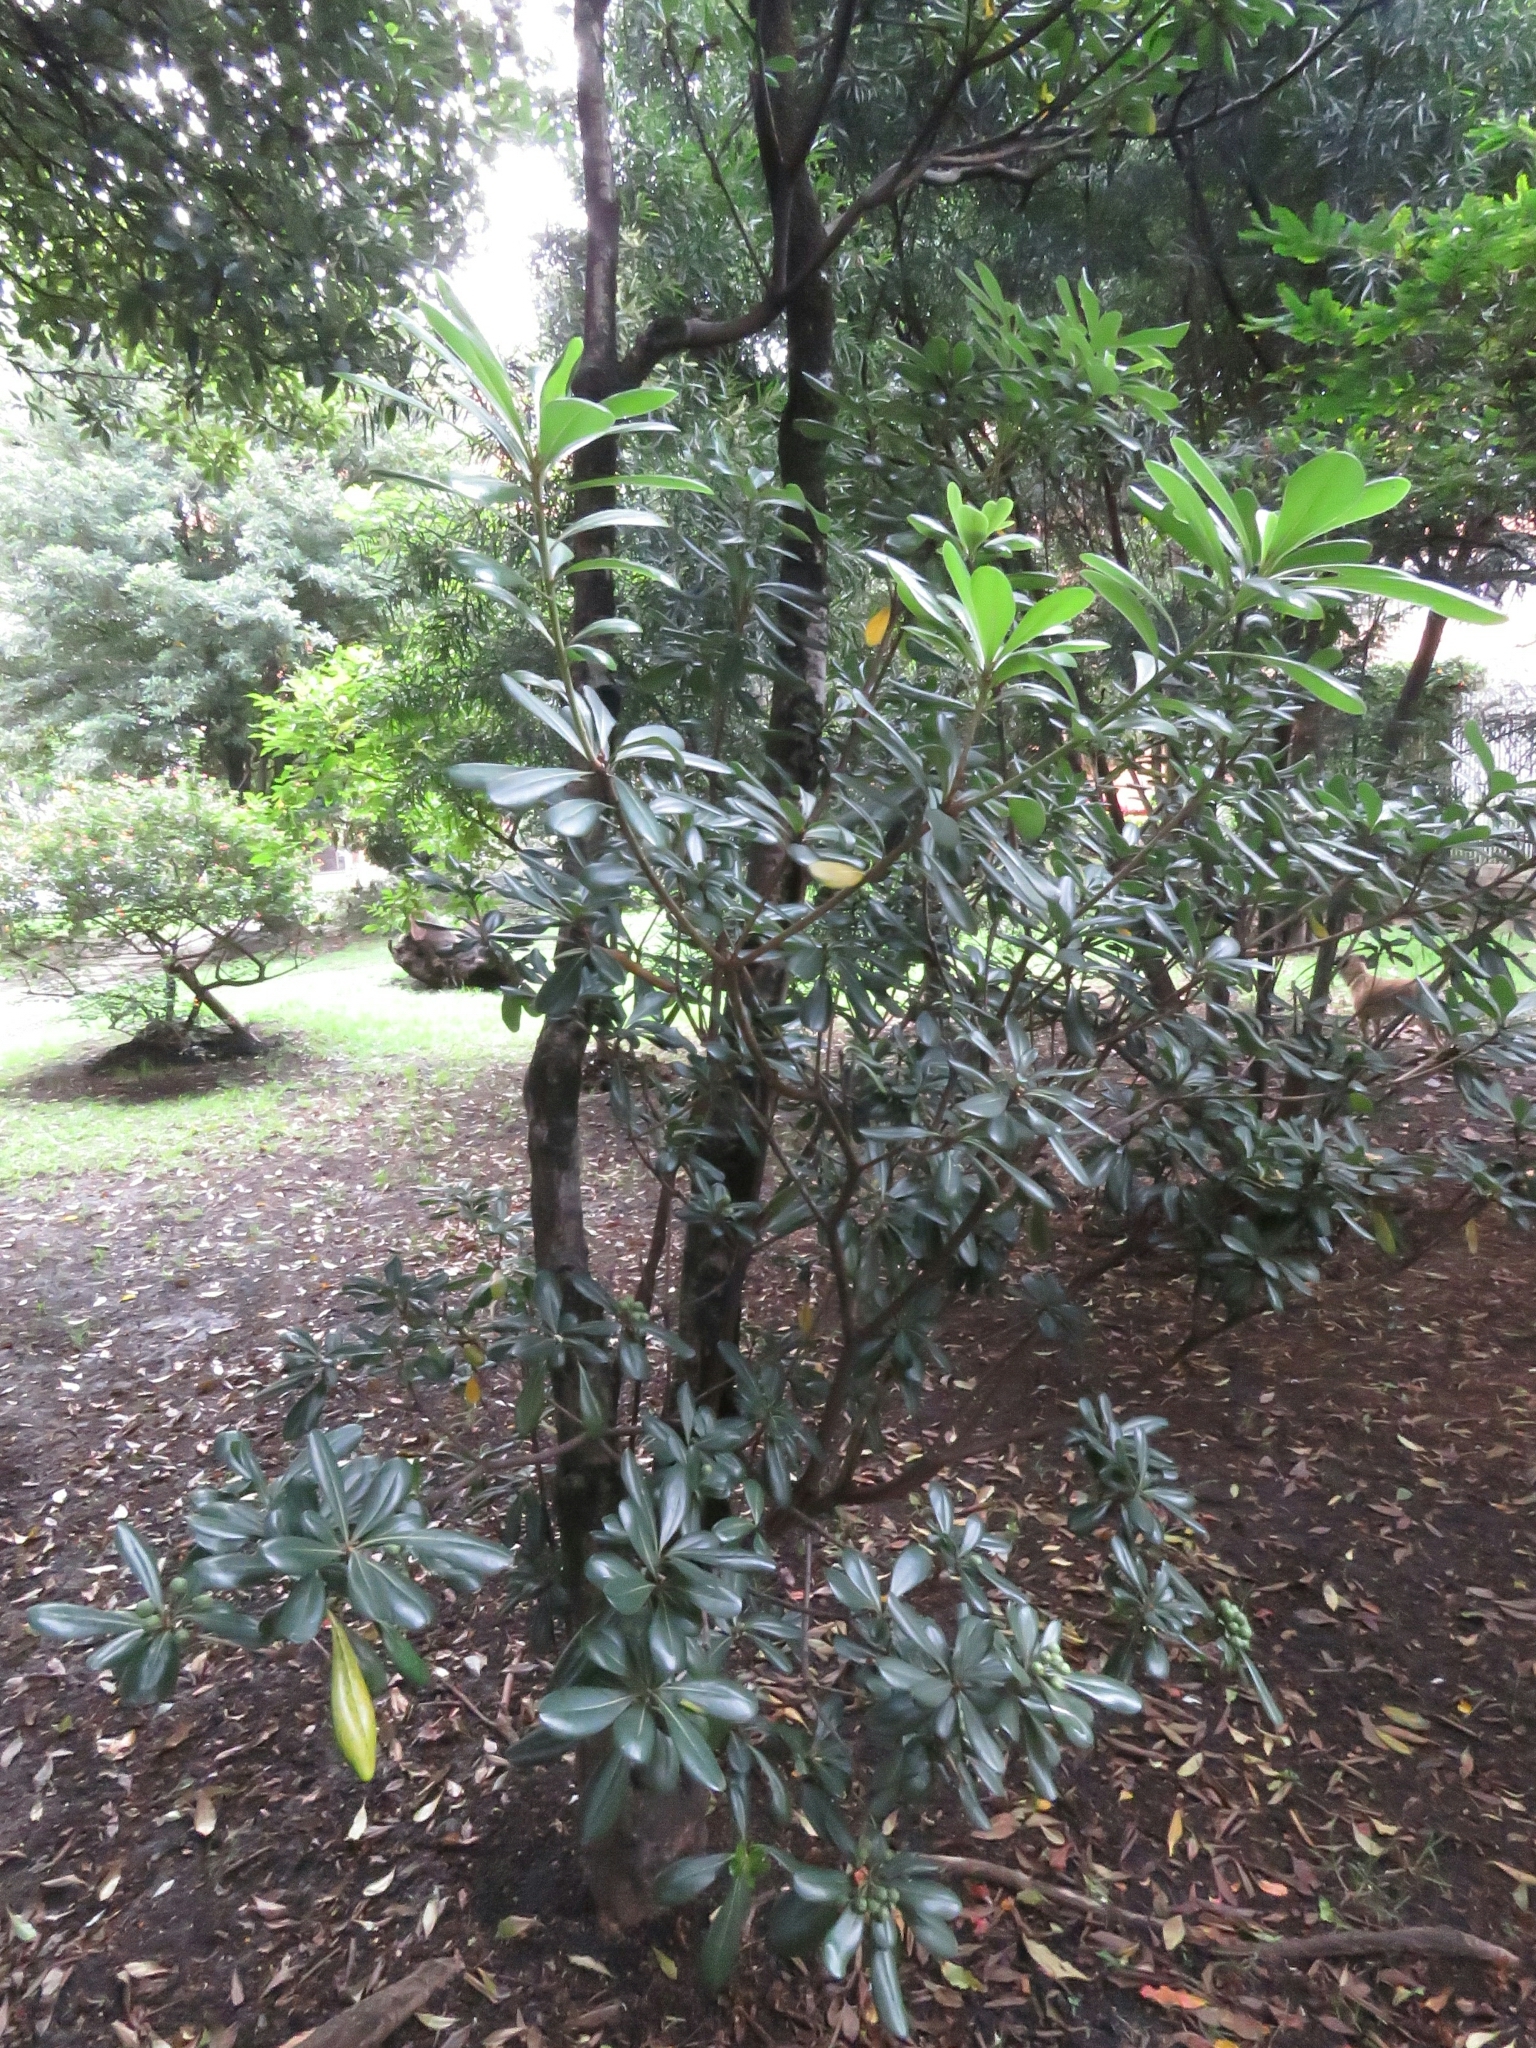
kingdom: Plantae
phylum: Tracheophyta
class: Magnoliopsida
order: Apiales
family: Pittosporaceae
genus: Pittosporum
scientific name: Pittosporum tobira
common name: Japanese cheesewood
